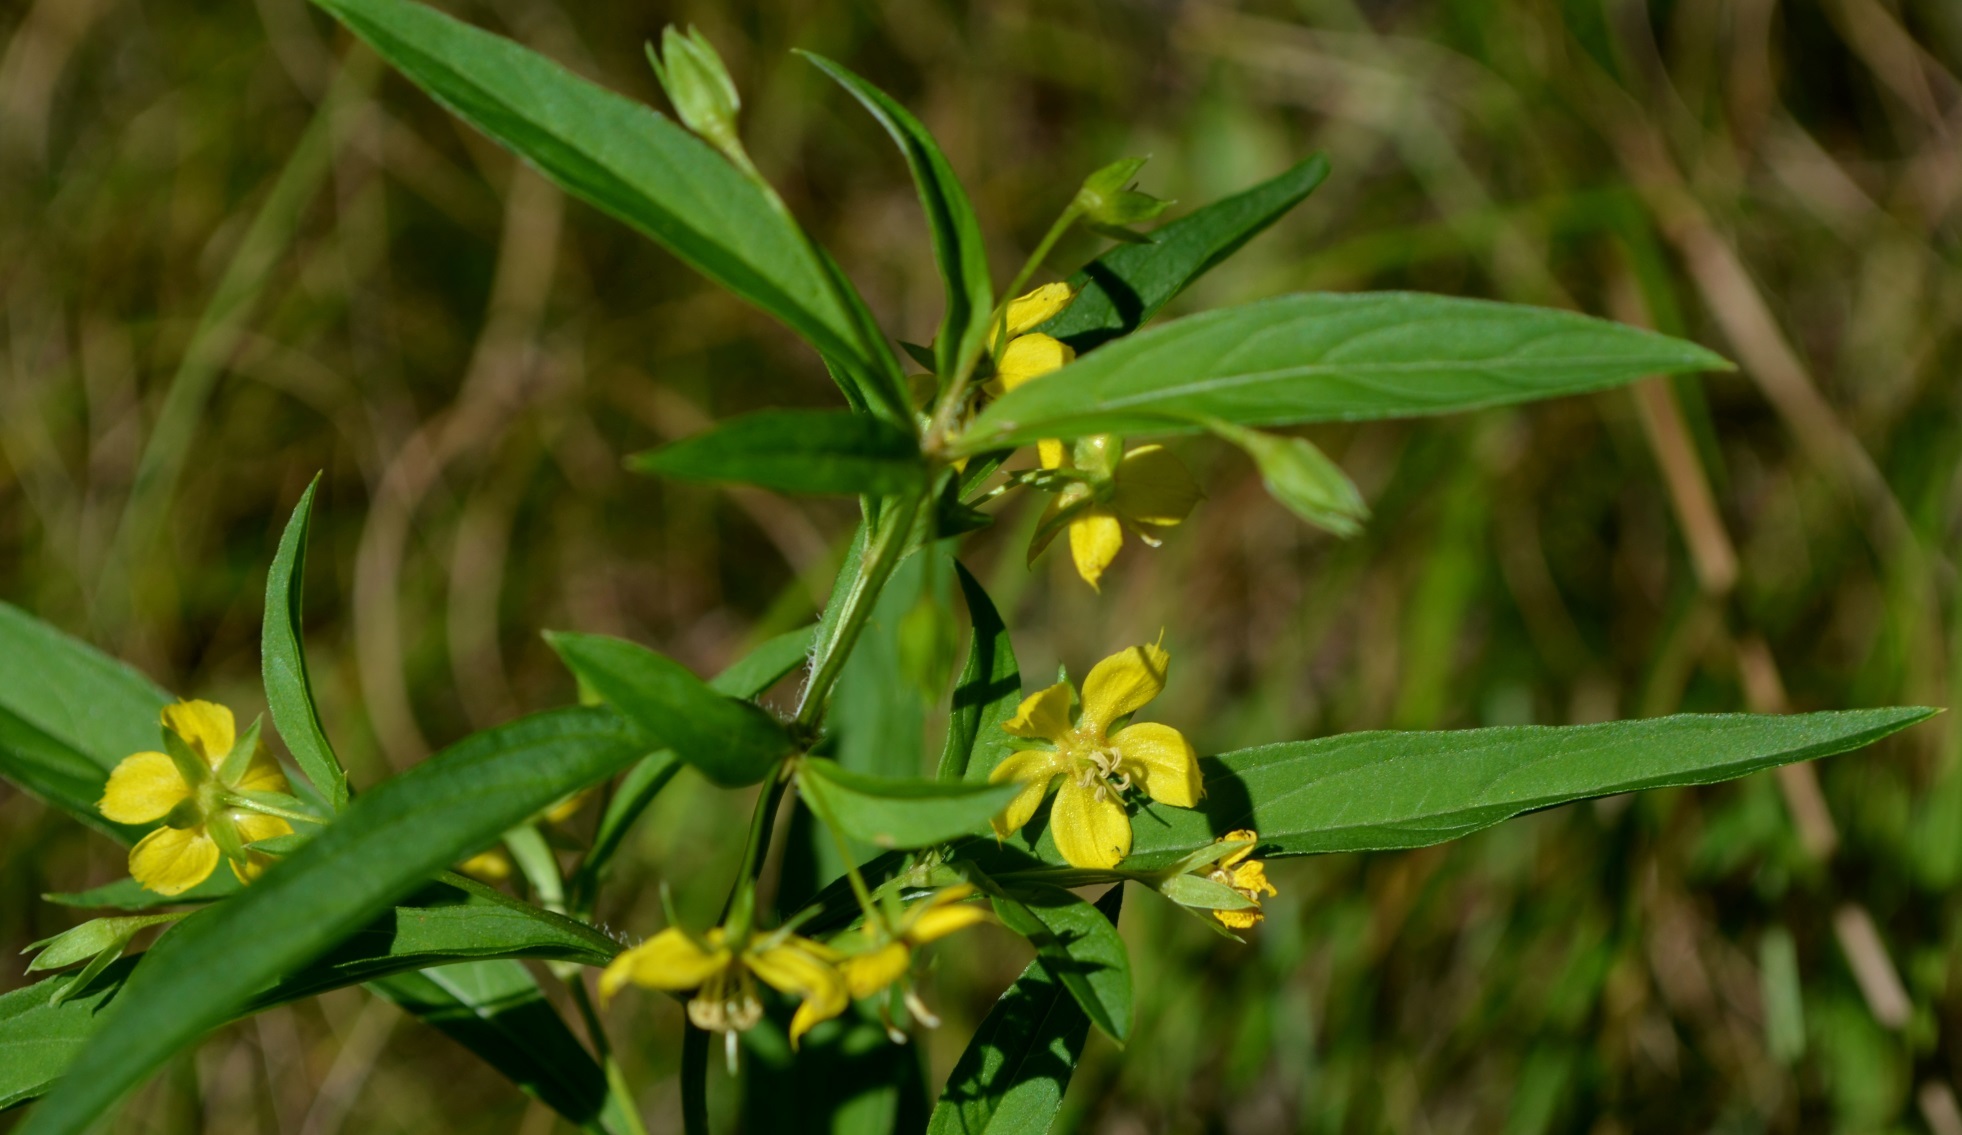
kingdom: Plantae
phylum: Tracheophyta
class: Magnoliopsida
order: Ericales
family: Primulaceae
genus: Lysimachia
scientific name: Lysimachia lanceolata
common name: Lance-leaved loosestrife
